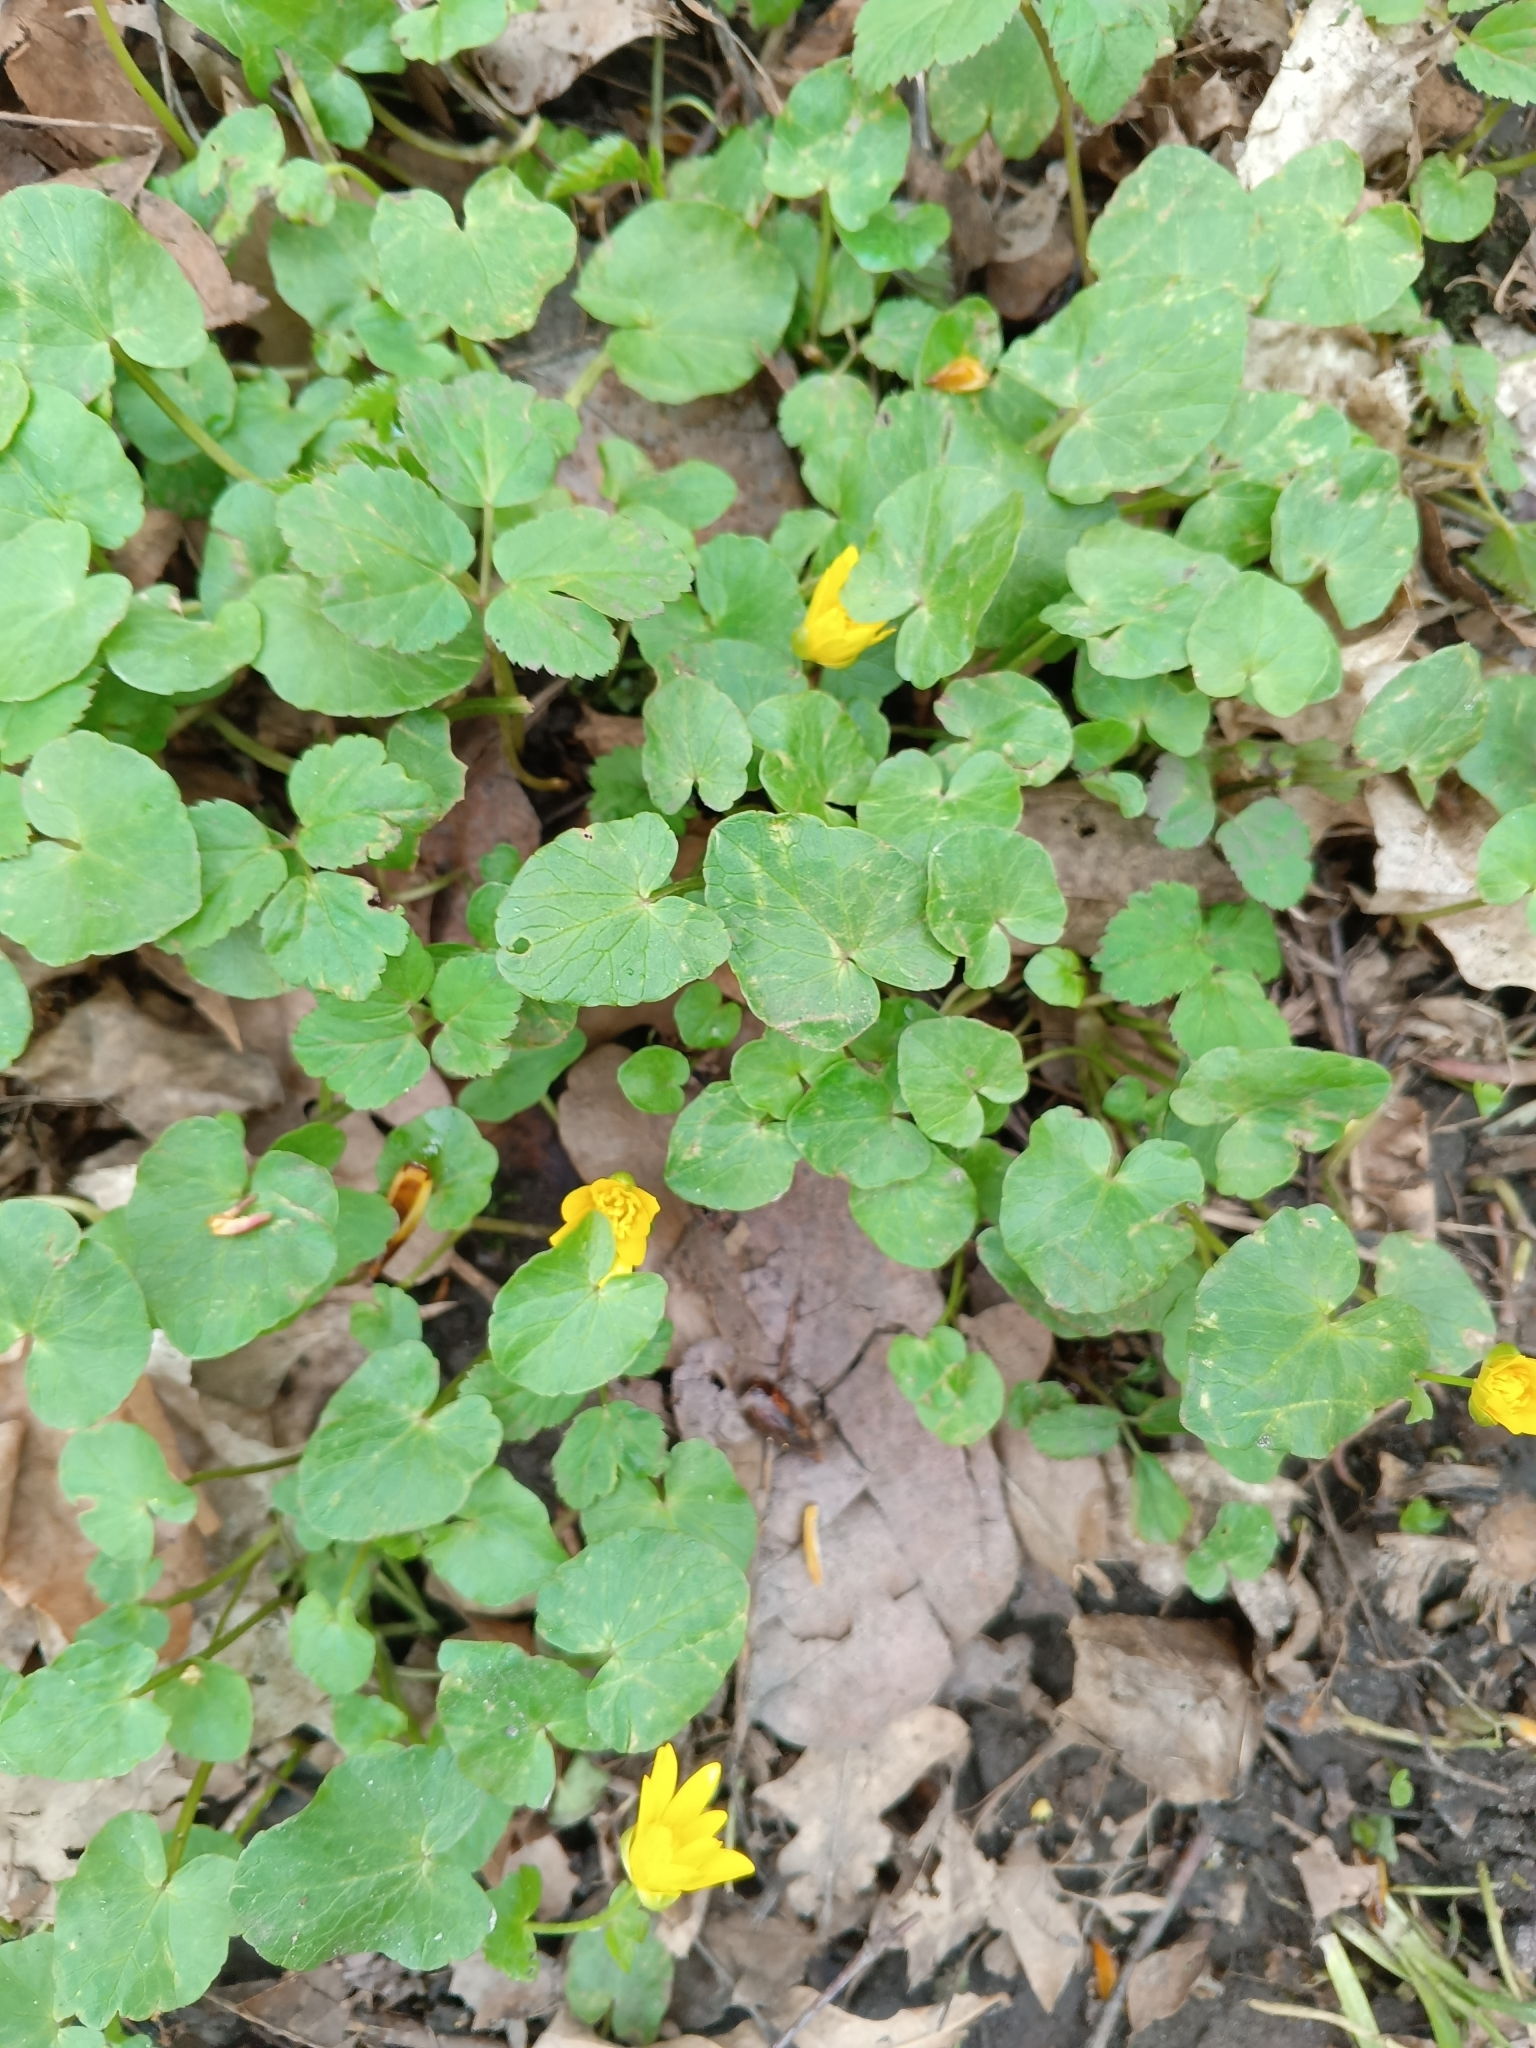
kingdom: Plantae
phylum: Tracheophyta
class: Magnoliopsida
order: Ranunculales
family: Ranunculaceae
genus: Ficaria
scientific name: Ficaria verna
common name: Lesser celandine
